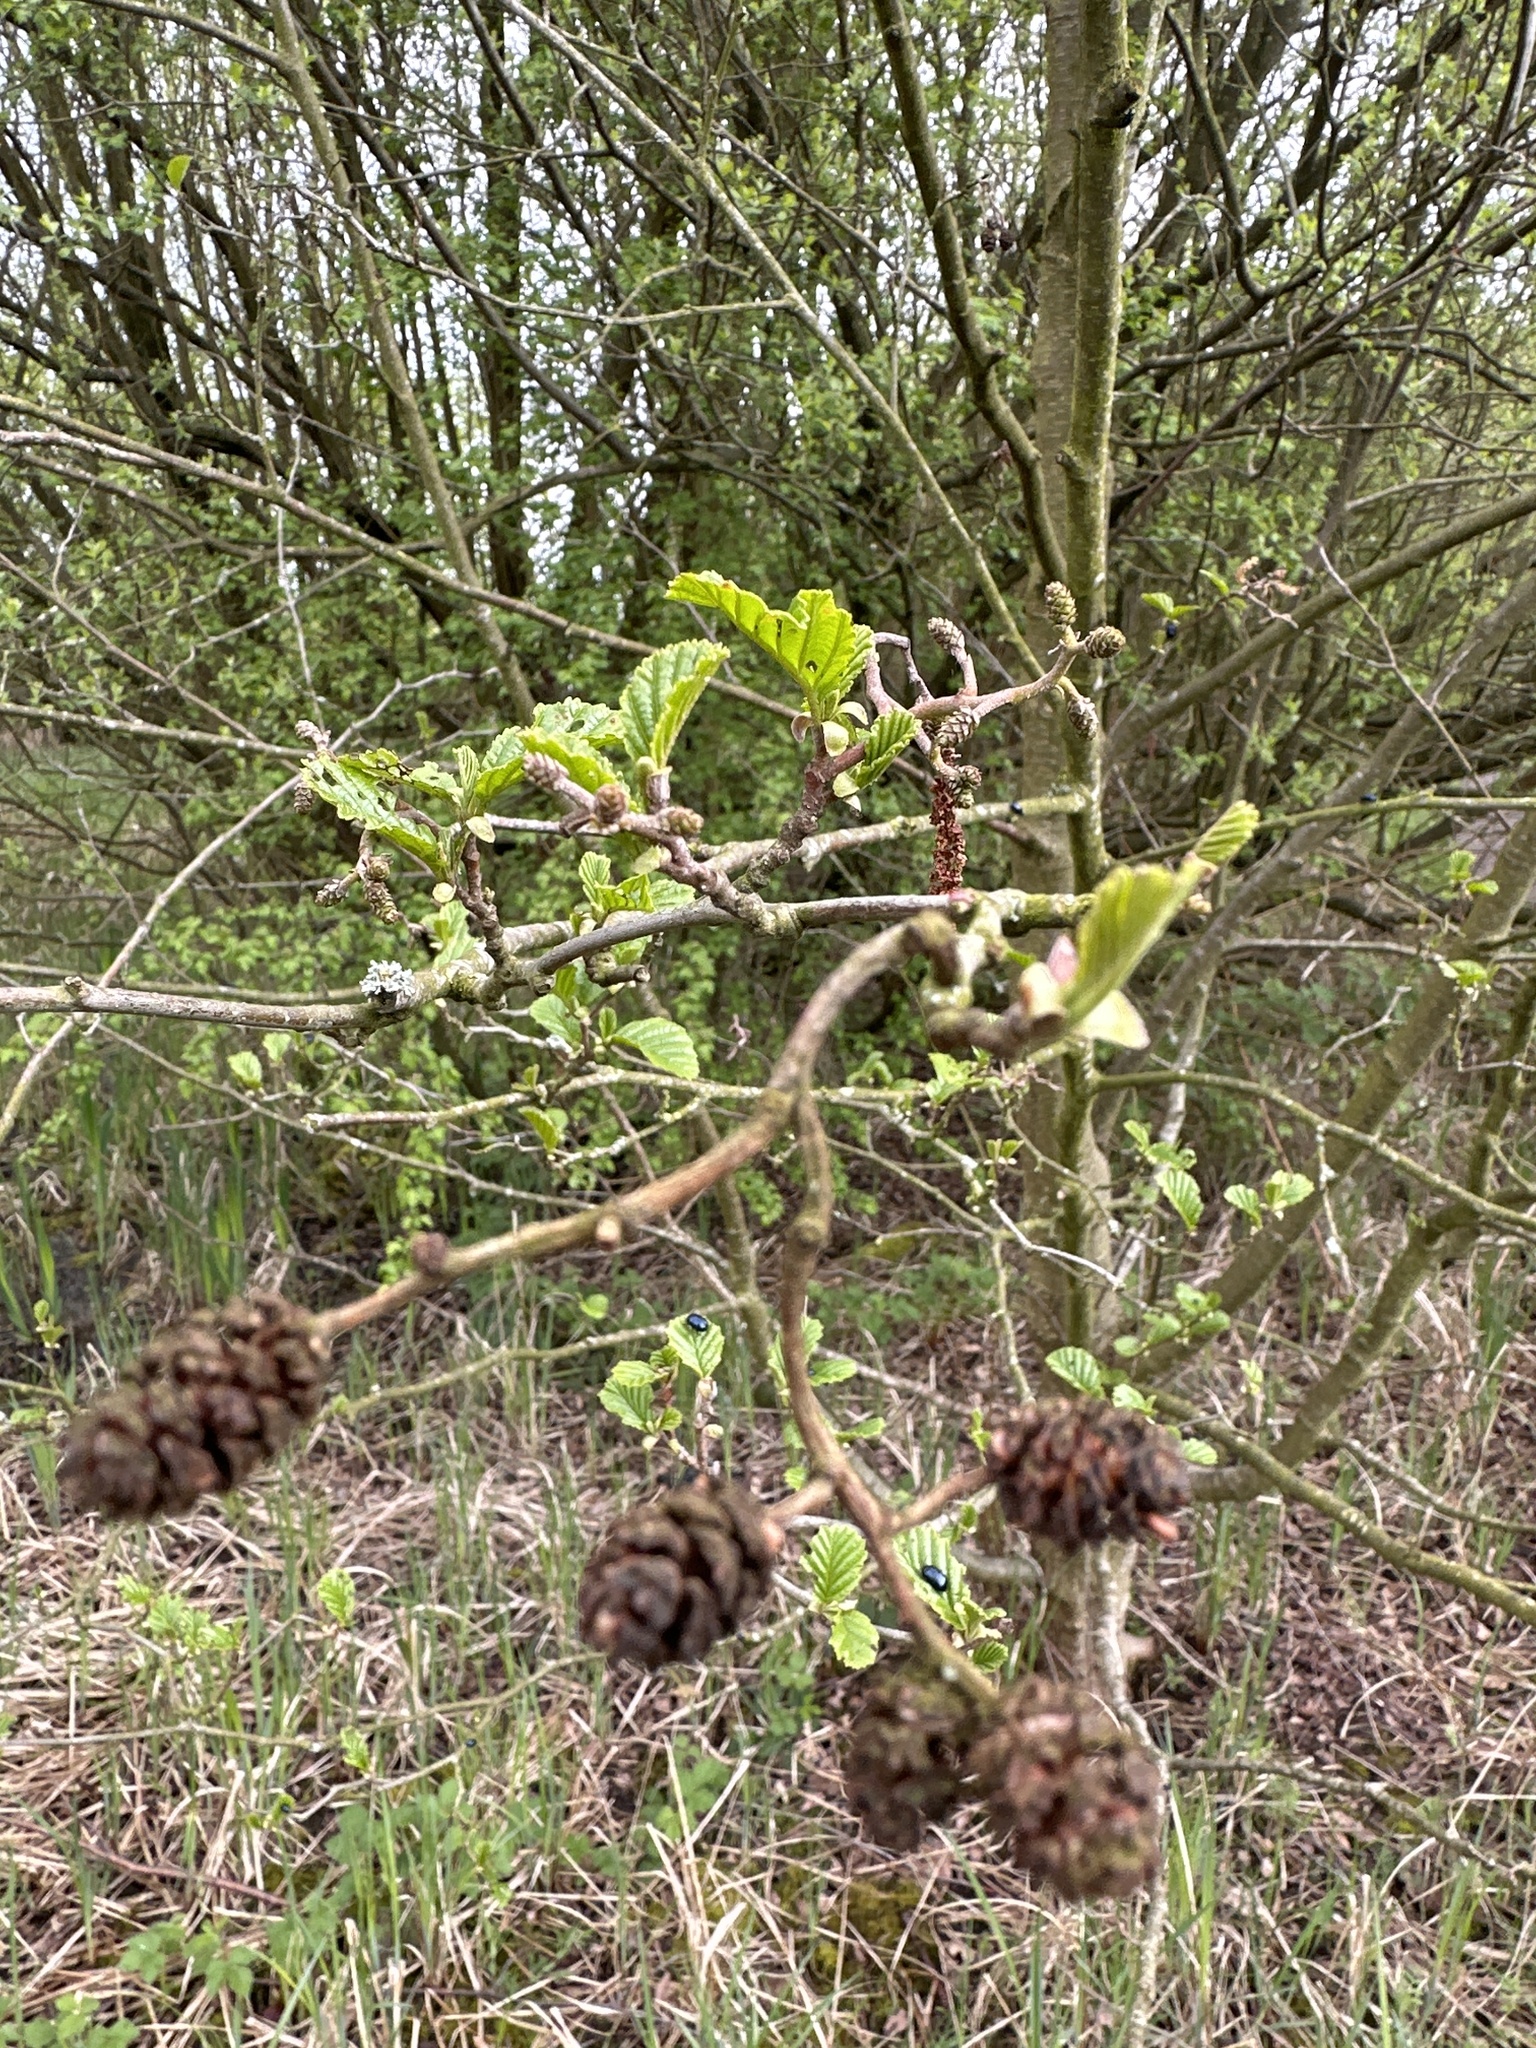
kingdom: Plantae
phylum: Tracheophyta
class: Magnoliopsida
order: Fagales
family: Betulaceae
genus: Alnus
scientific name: Alnus glutinosa
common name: Black alder
